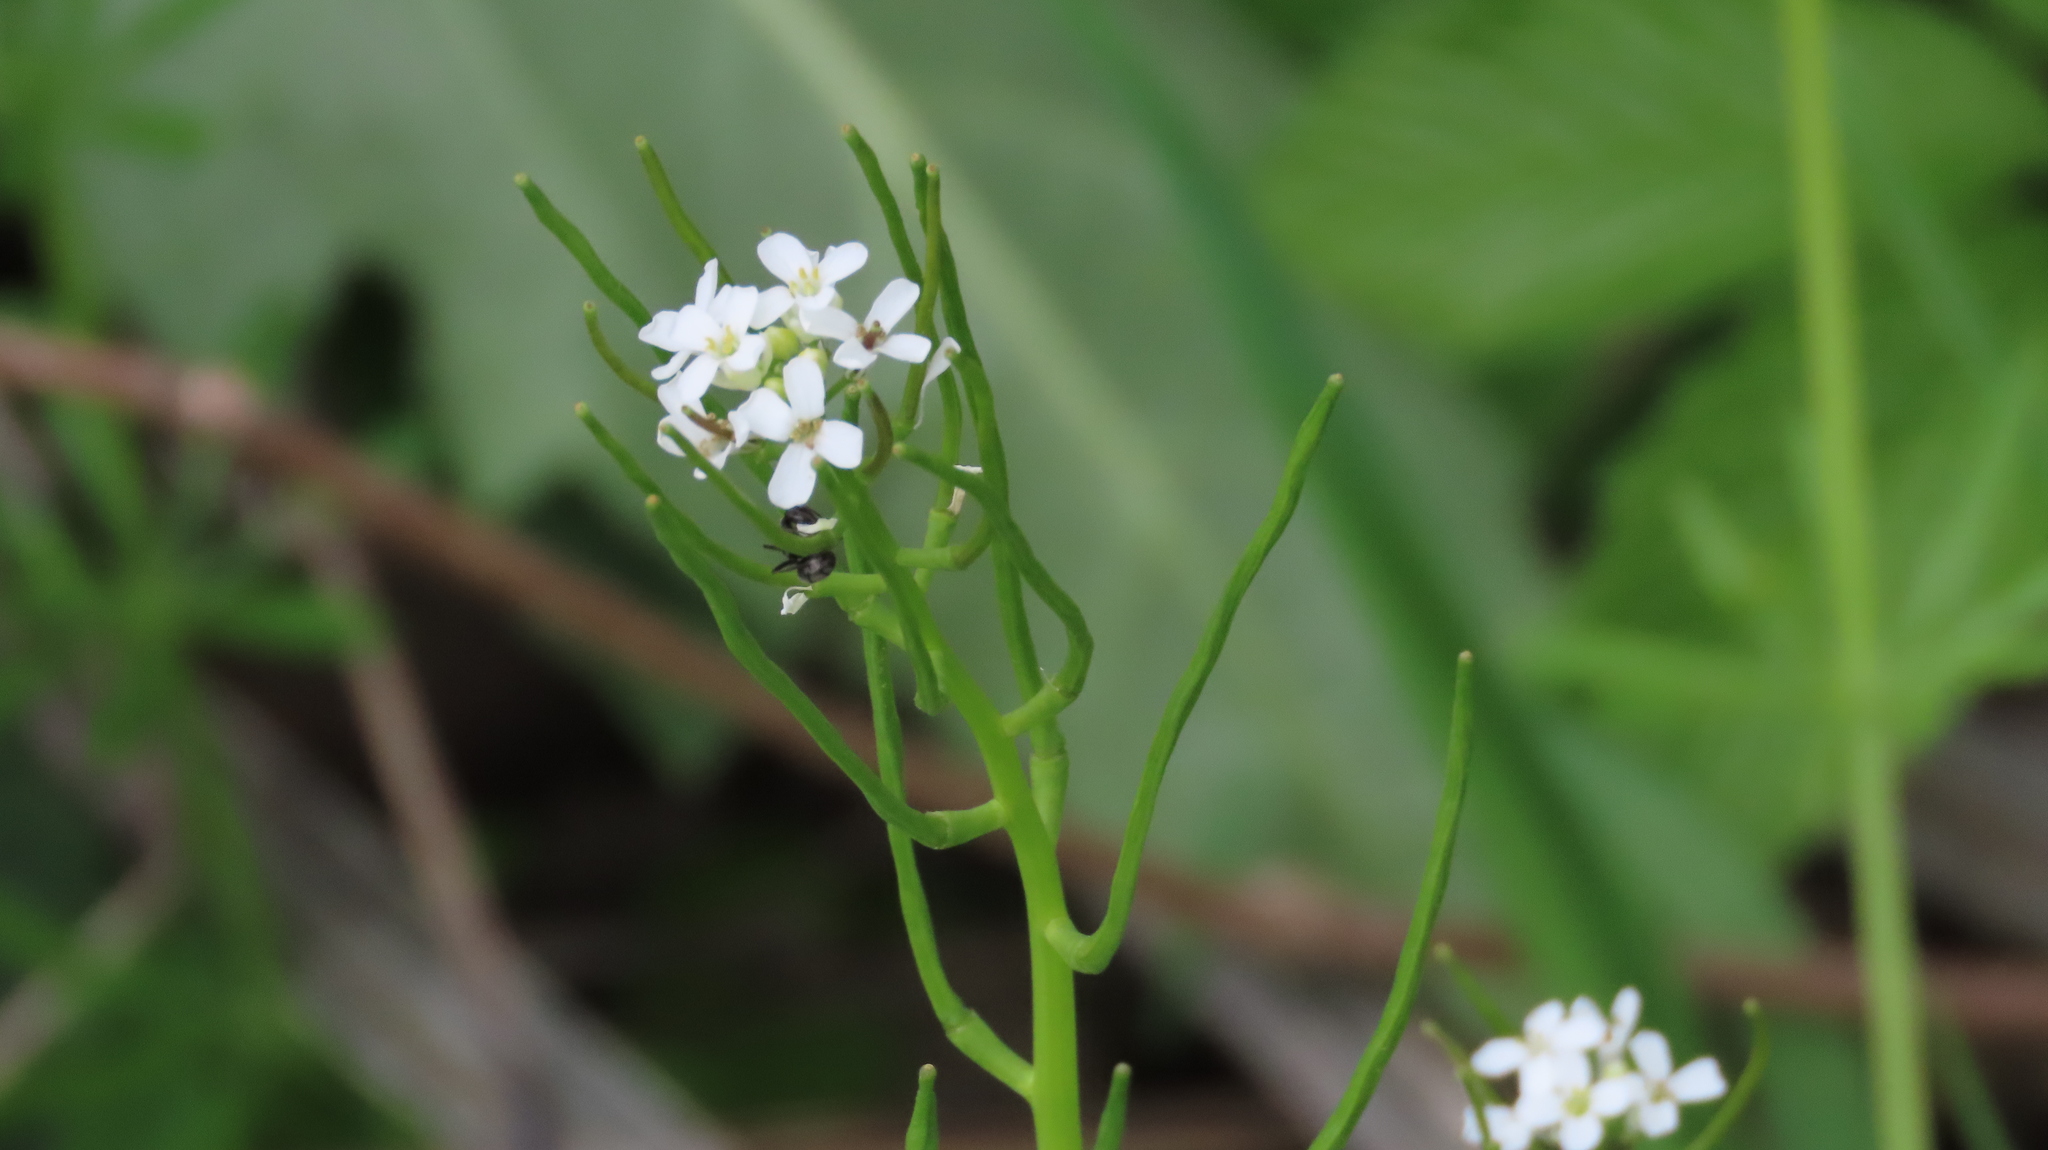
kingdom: Plantae
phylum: Tracheophyta
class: Magnoliopsida
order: Brassicales
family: Brassicaceae
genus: Alliaria
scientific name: Alliaria petiolata
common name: Garlic mustard
